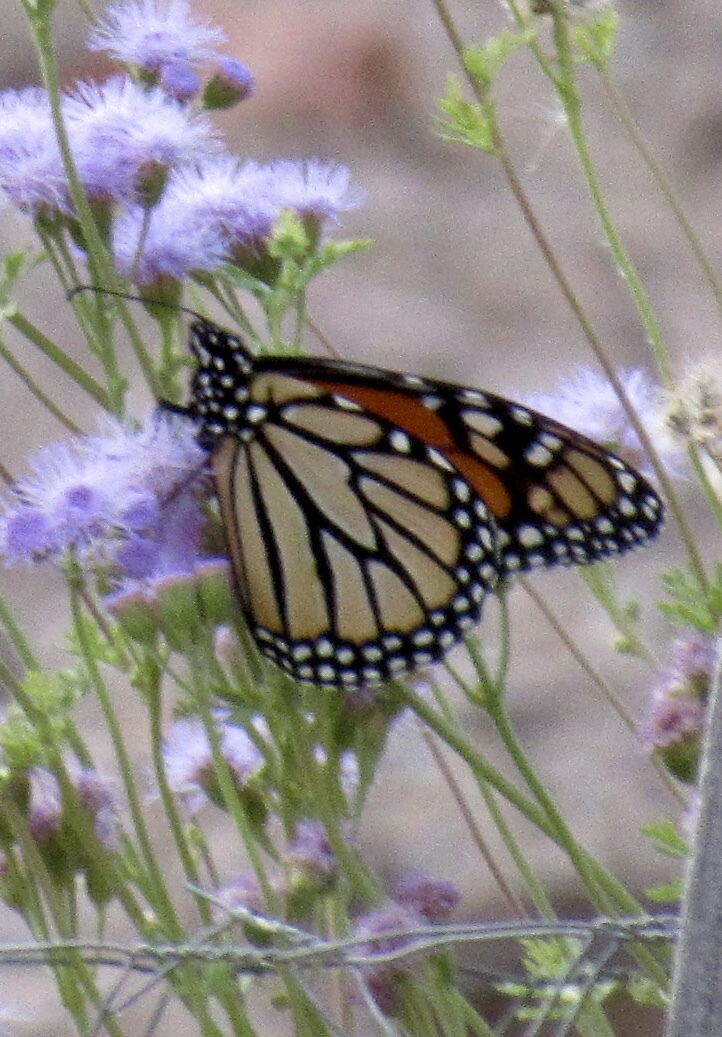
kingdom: Animalia
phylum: Arthropoda
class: Insecta
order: Lepidoptera
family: Nymphalidae
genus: Danaus
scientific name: Danaus plexippus
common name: Monarch
